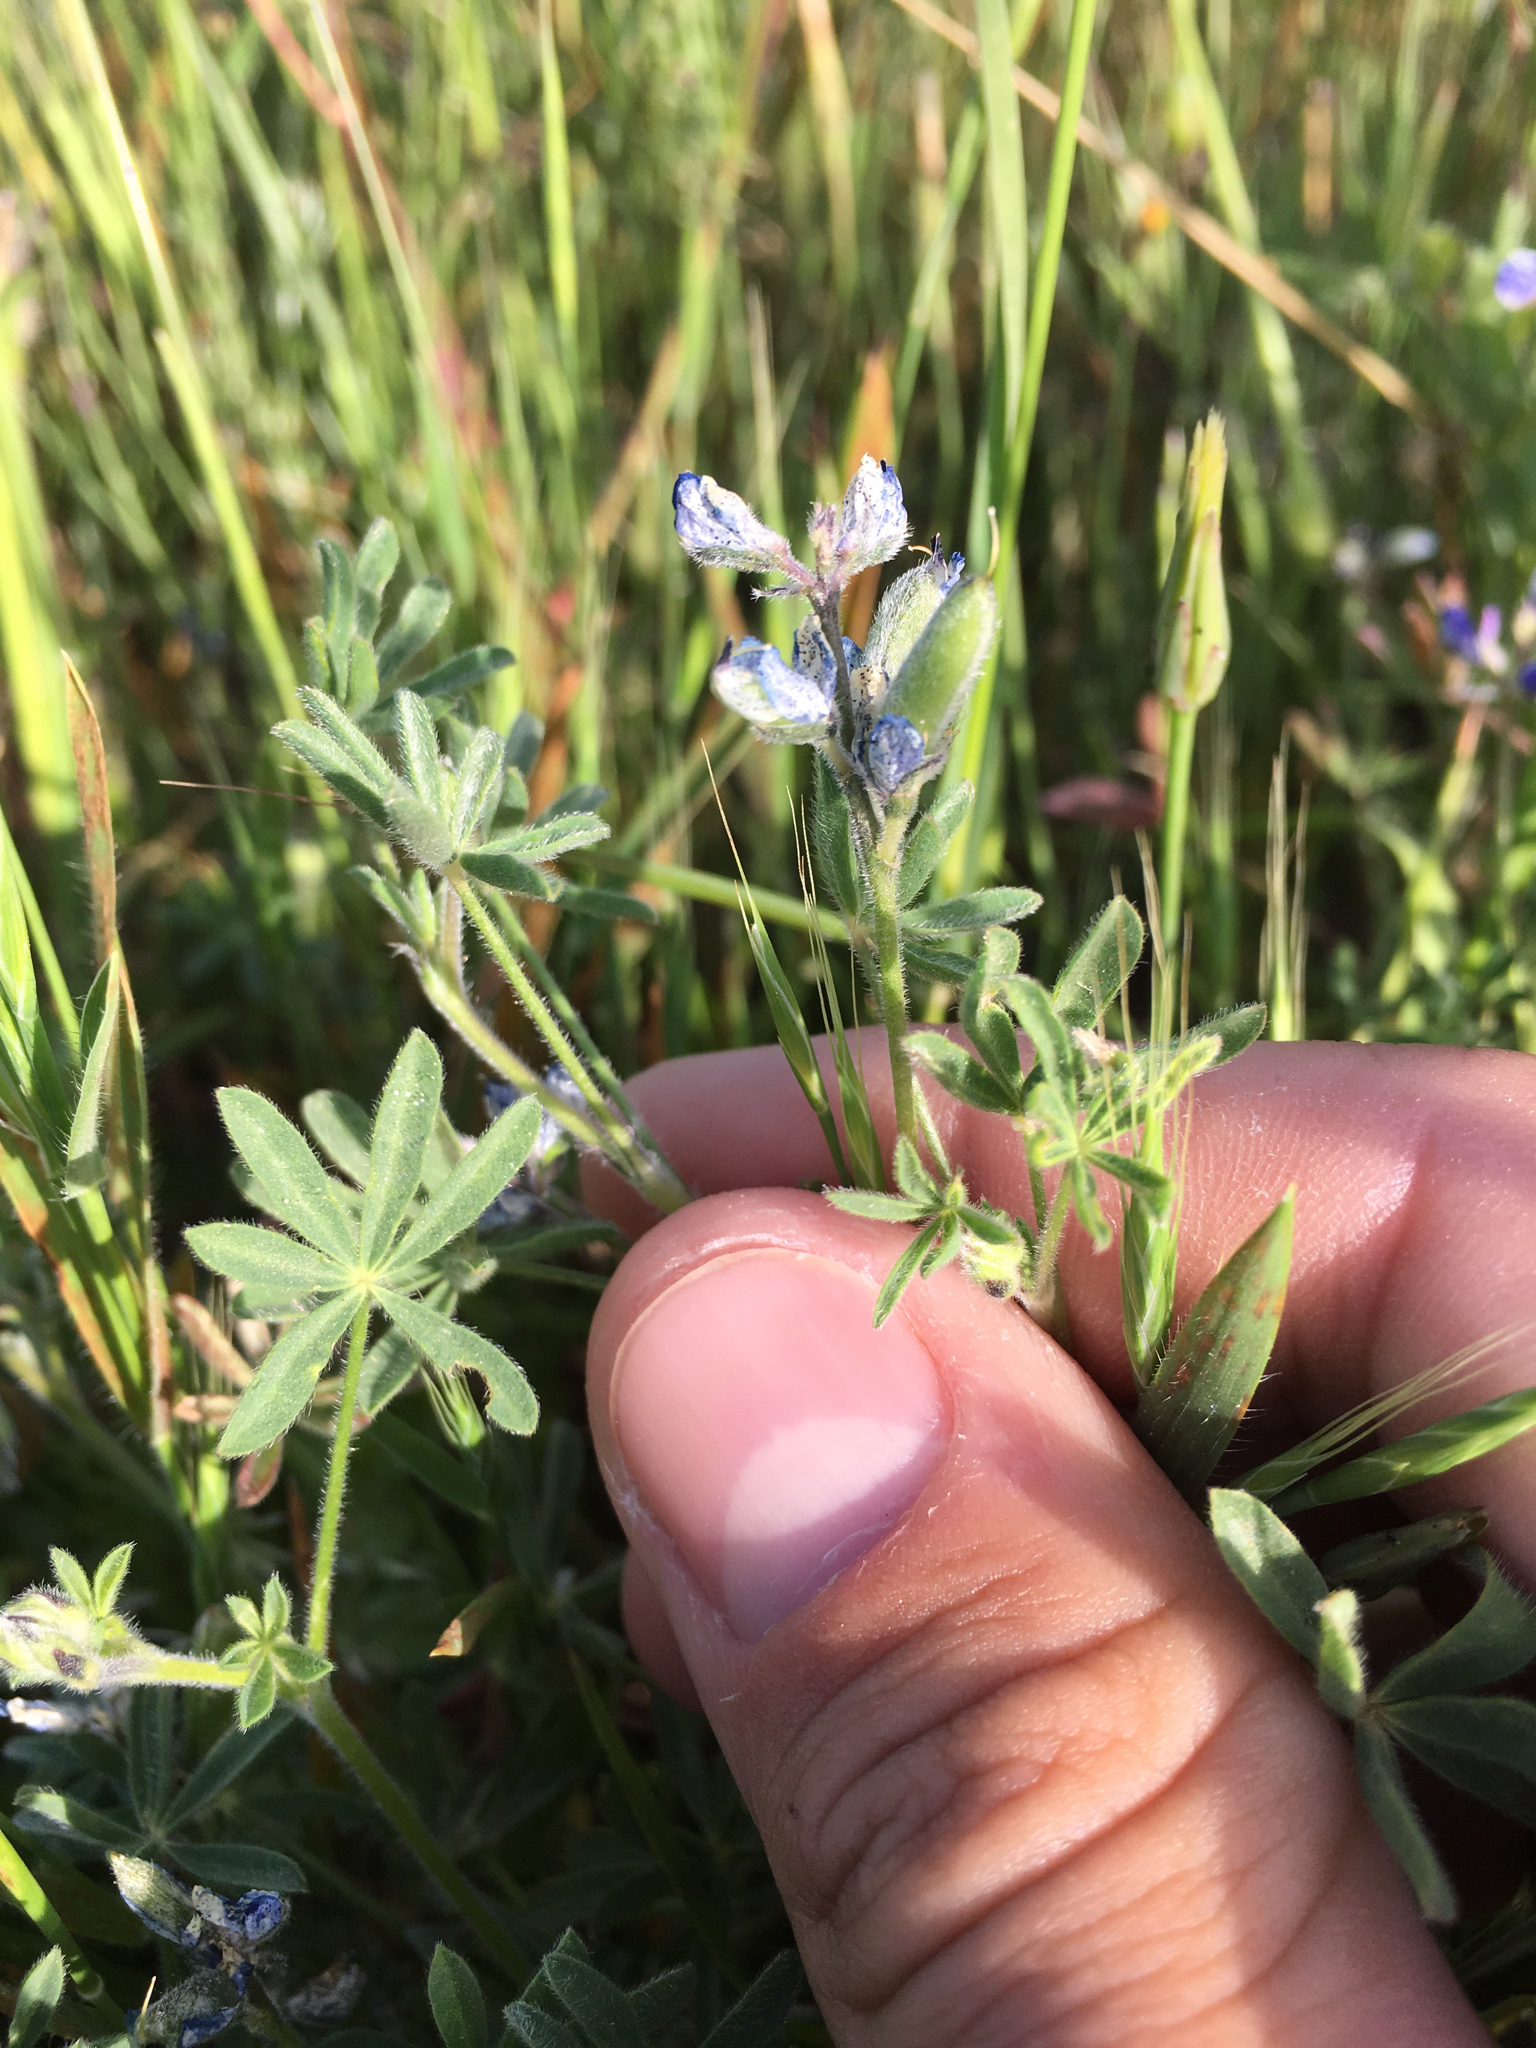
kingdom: Plantae
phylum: Tracheophyta
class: Magnoliopsida
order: Fabales
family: Fabaceae
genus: Lupinus
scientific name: Lupinus bicolor
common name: Miniature lupine
